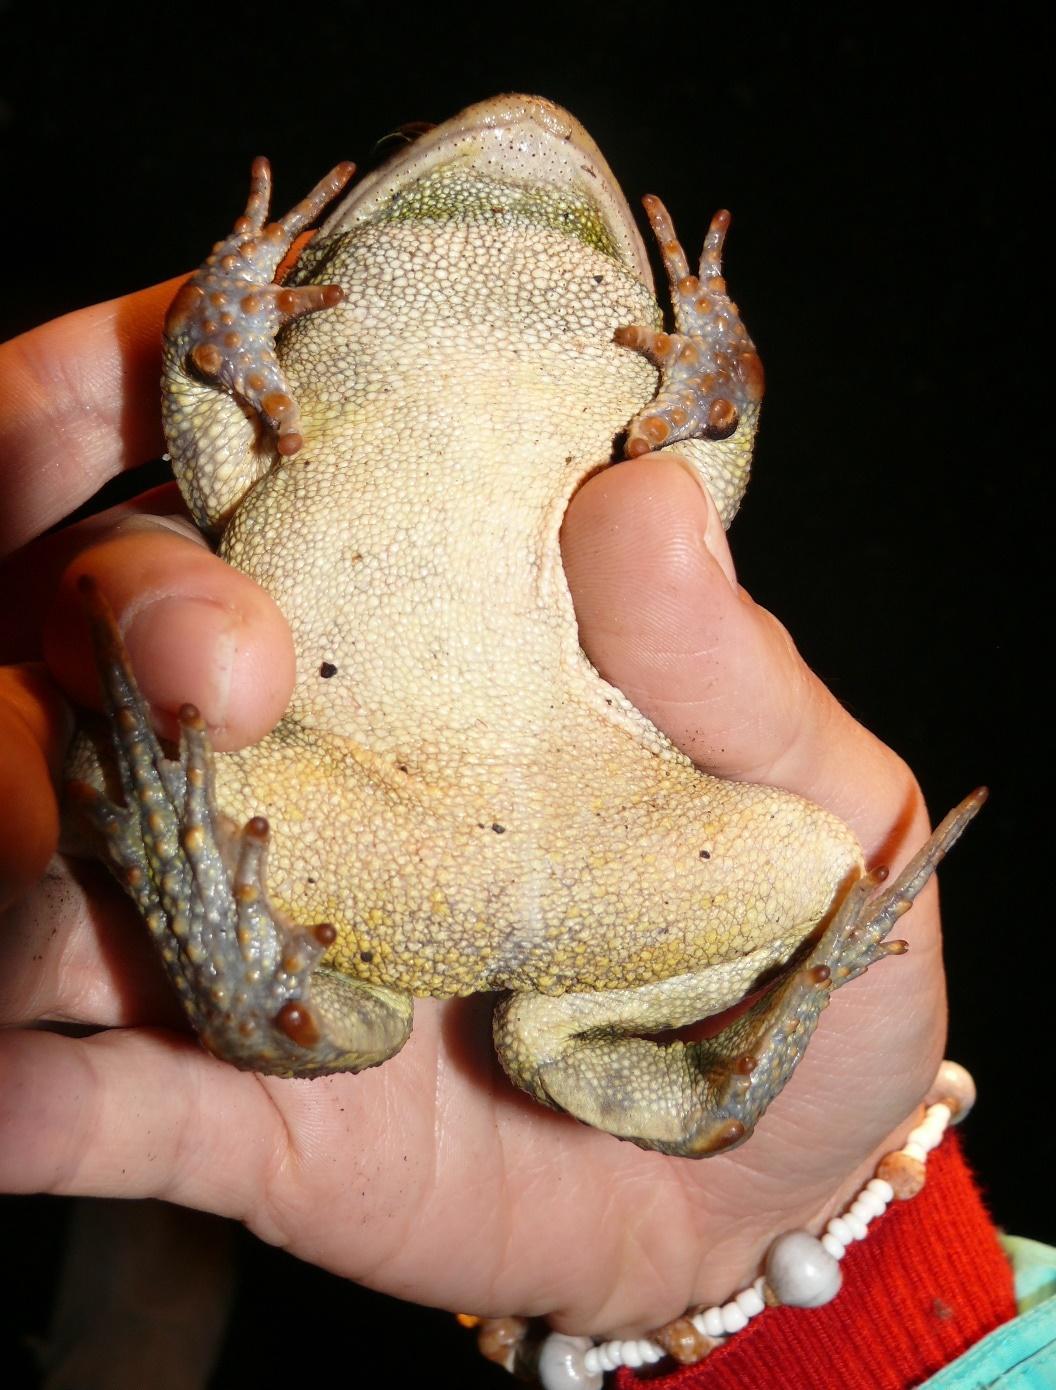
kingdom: Animalia
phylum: Chordata
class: Amphibia
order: Anura
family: Bufonidae
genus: Sclerophrys
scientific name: Sclerophrys pantherina
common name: Panther toad
